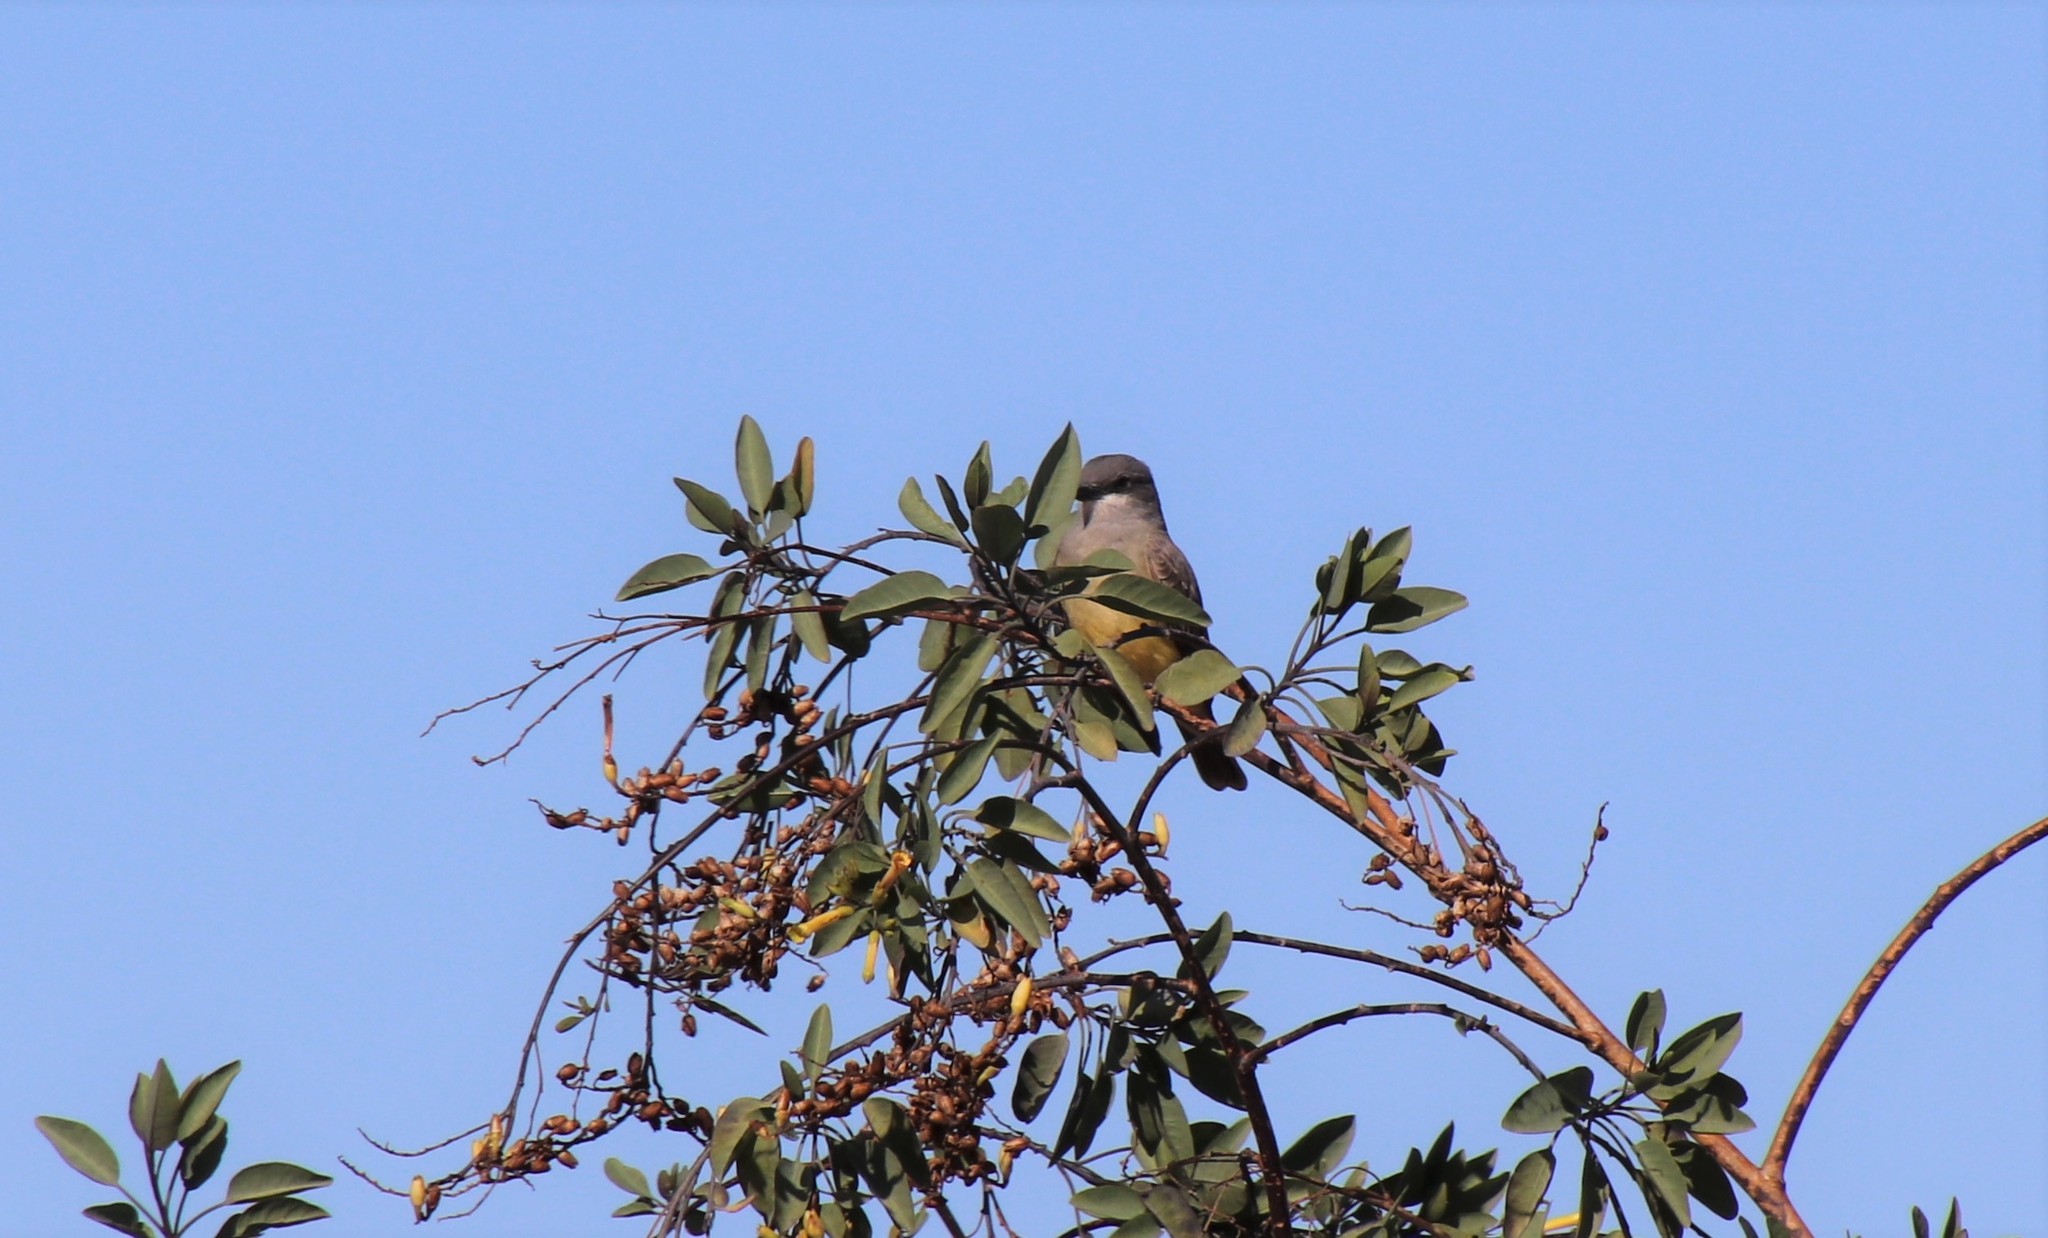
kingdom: Animalia
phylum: Chordata
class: Aves
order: Passeriformes
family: Tyrannidae
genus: Tyrannus
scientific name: Tyrannus vociferans
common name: Cassin's kingbird
